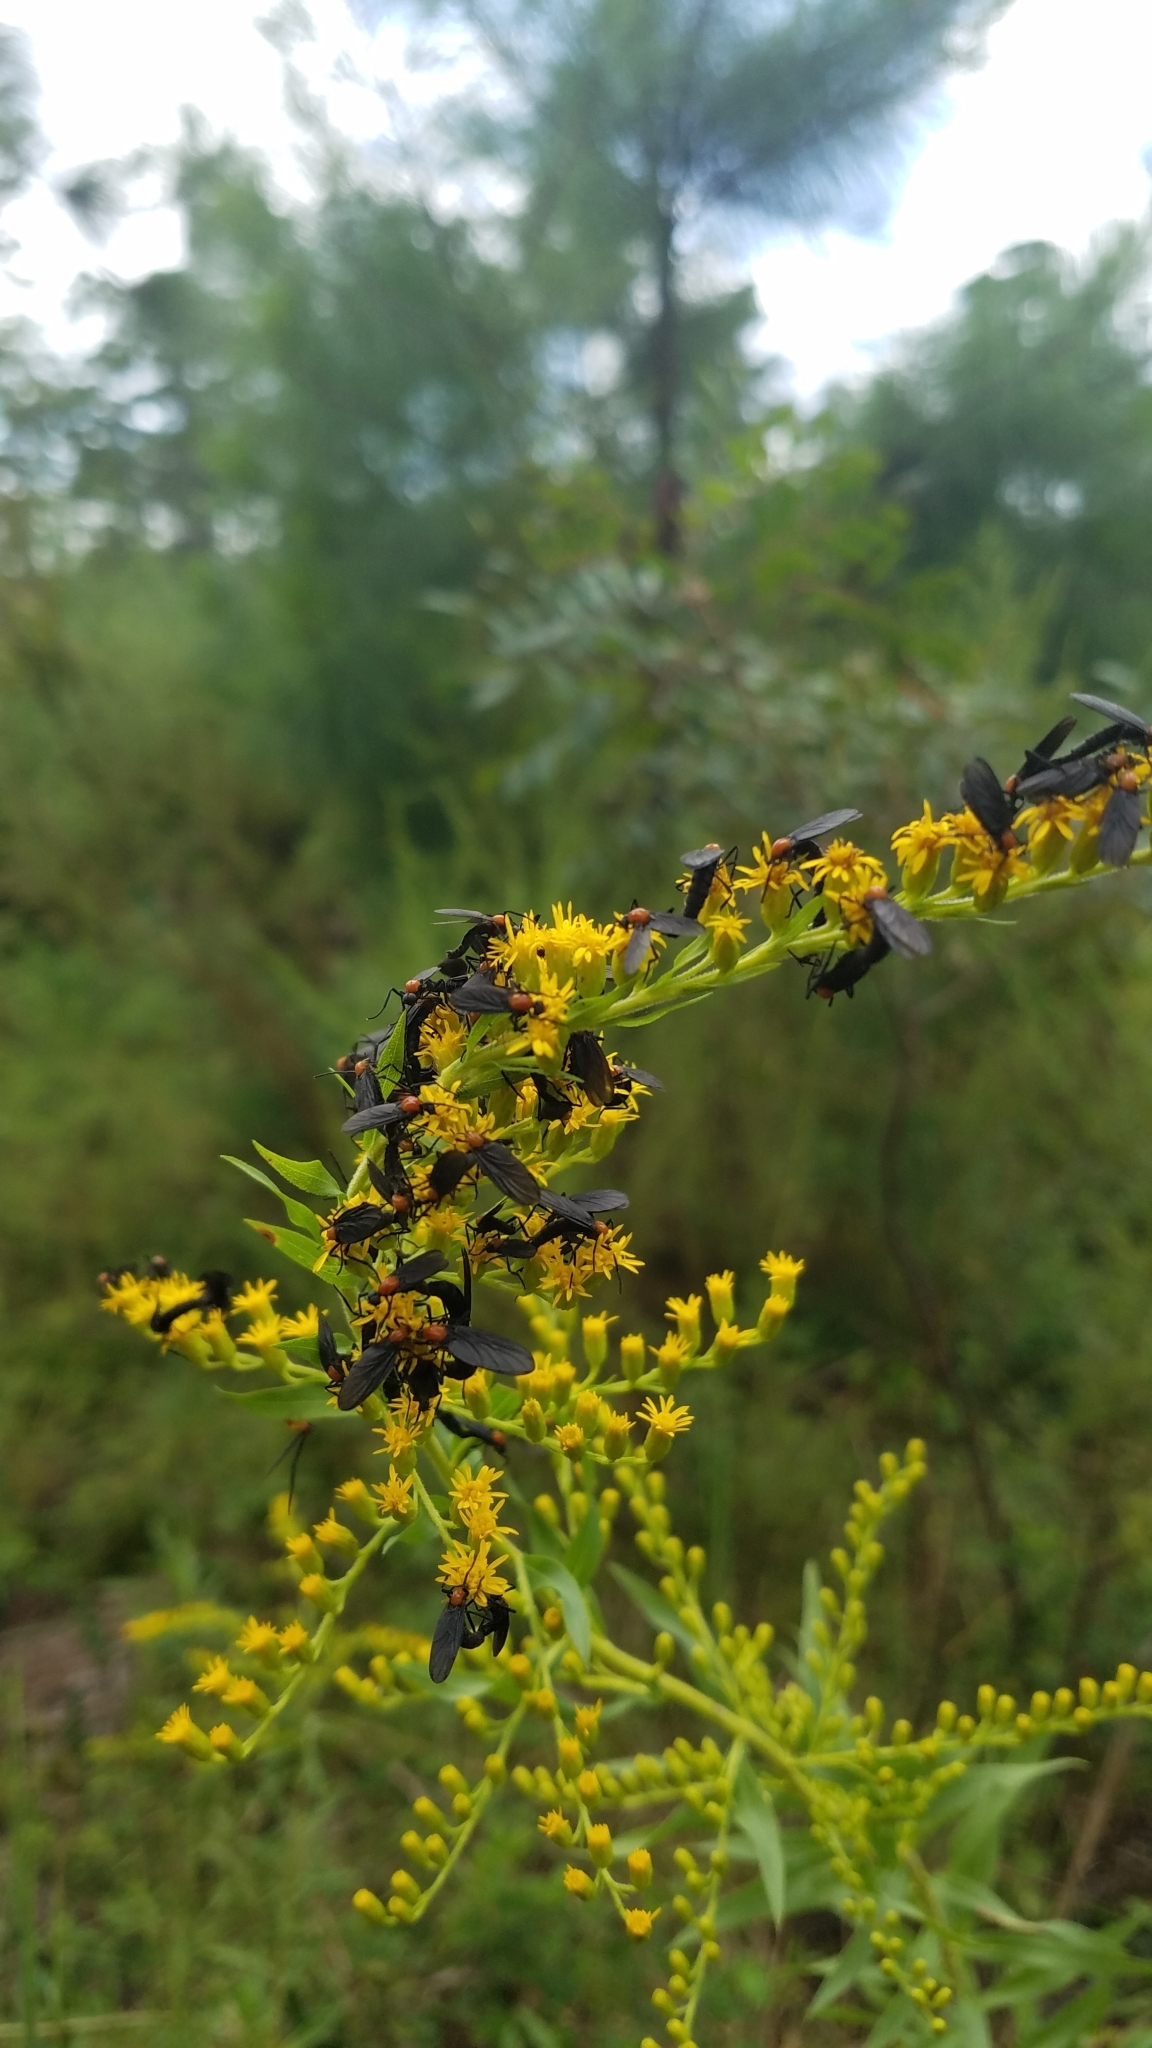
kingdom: Animalia
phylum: Arthropoda
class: Insecta
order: Diptera
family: Bibionidae
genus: Plecia
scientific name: Plecia nearctica
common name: March fly
